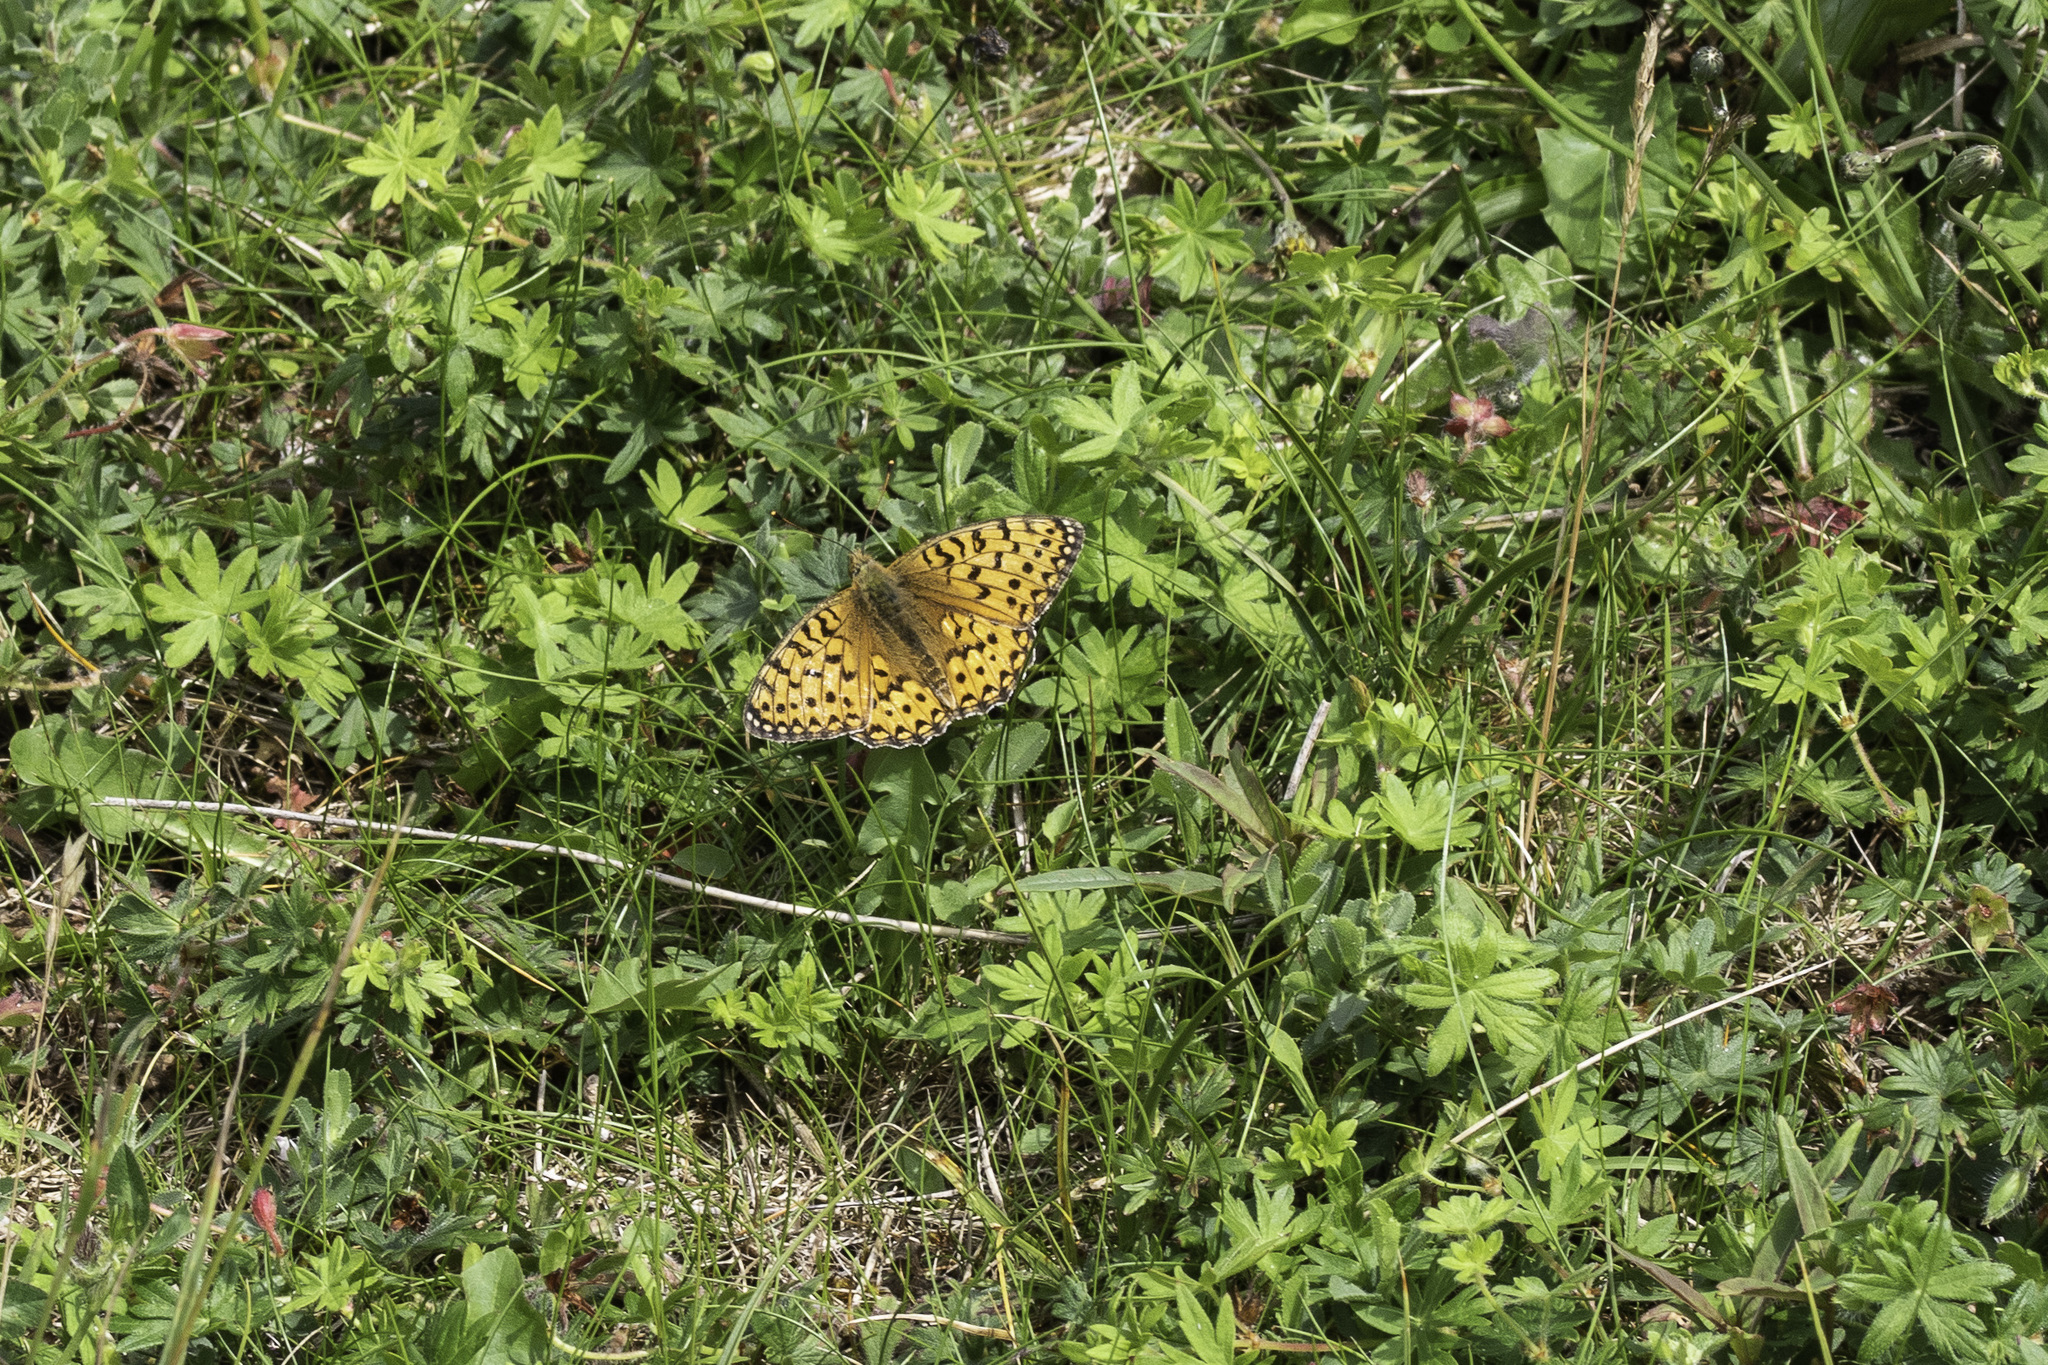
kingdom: Animalia
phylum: Arthropoda
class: Insecta
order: Lepidoptera
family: Nymphalidae
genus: Speyeria
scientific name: Speyeria aglaja
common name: Dark green fritillary
